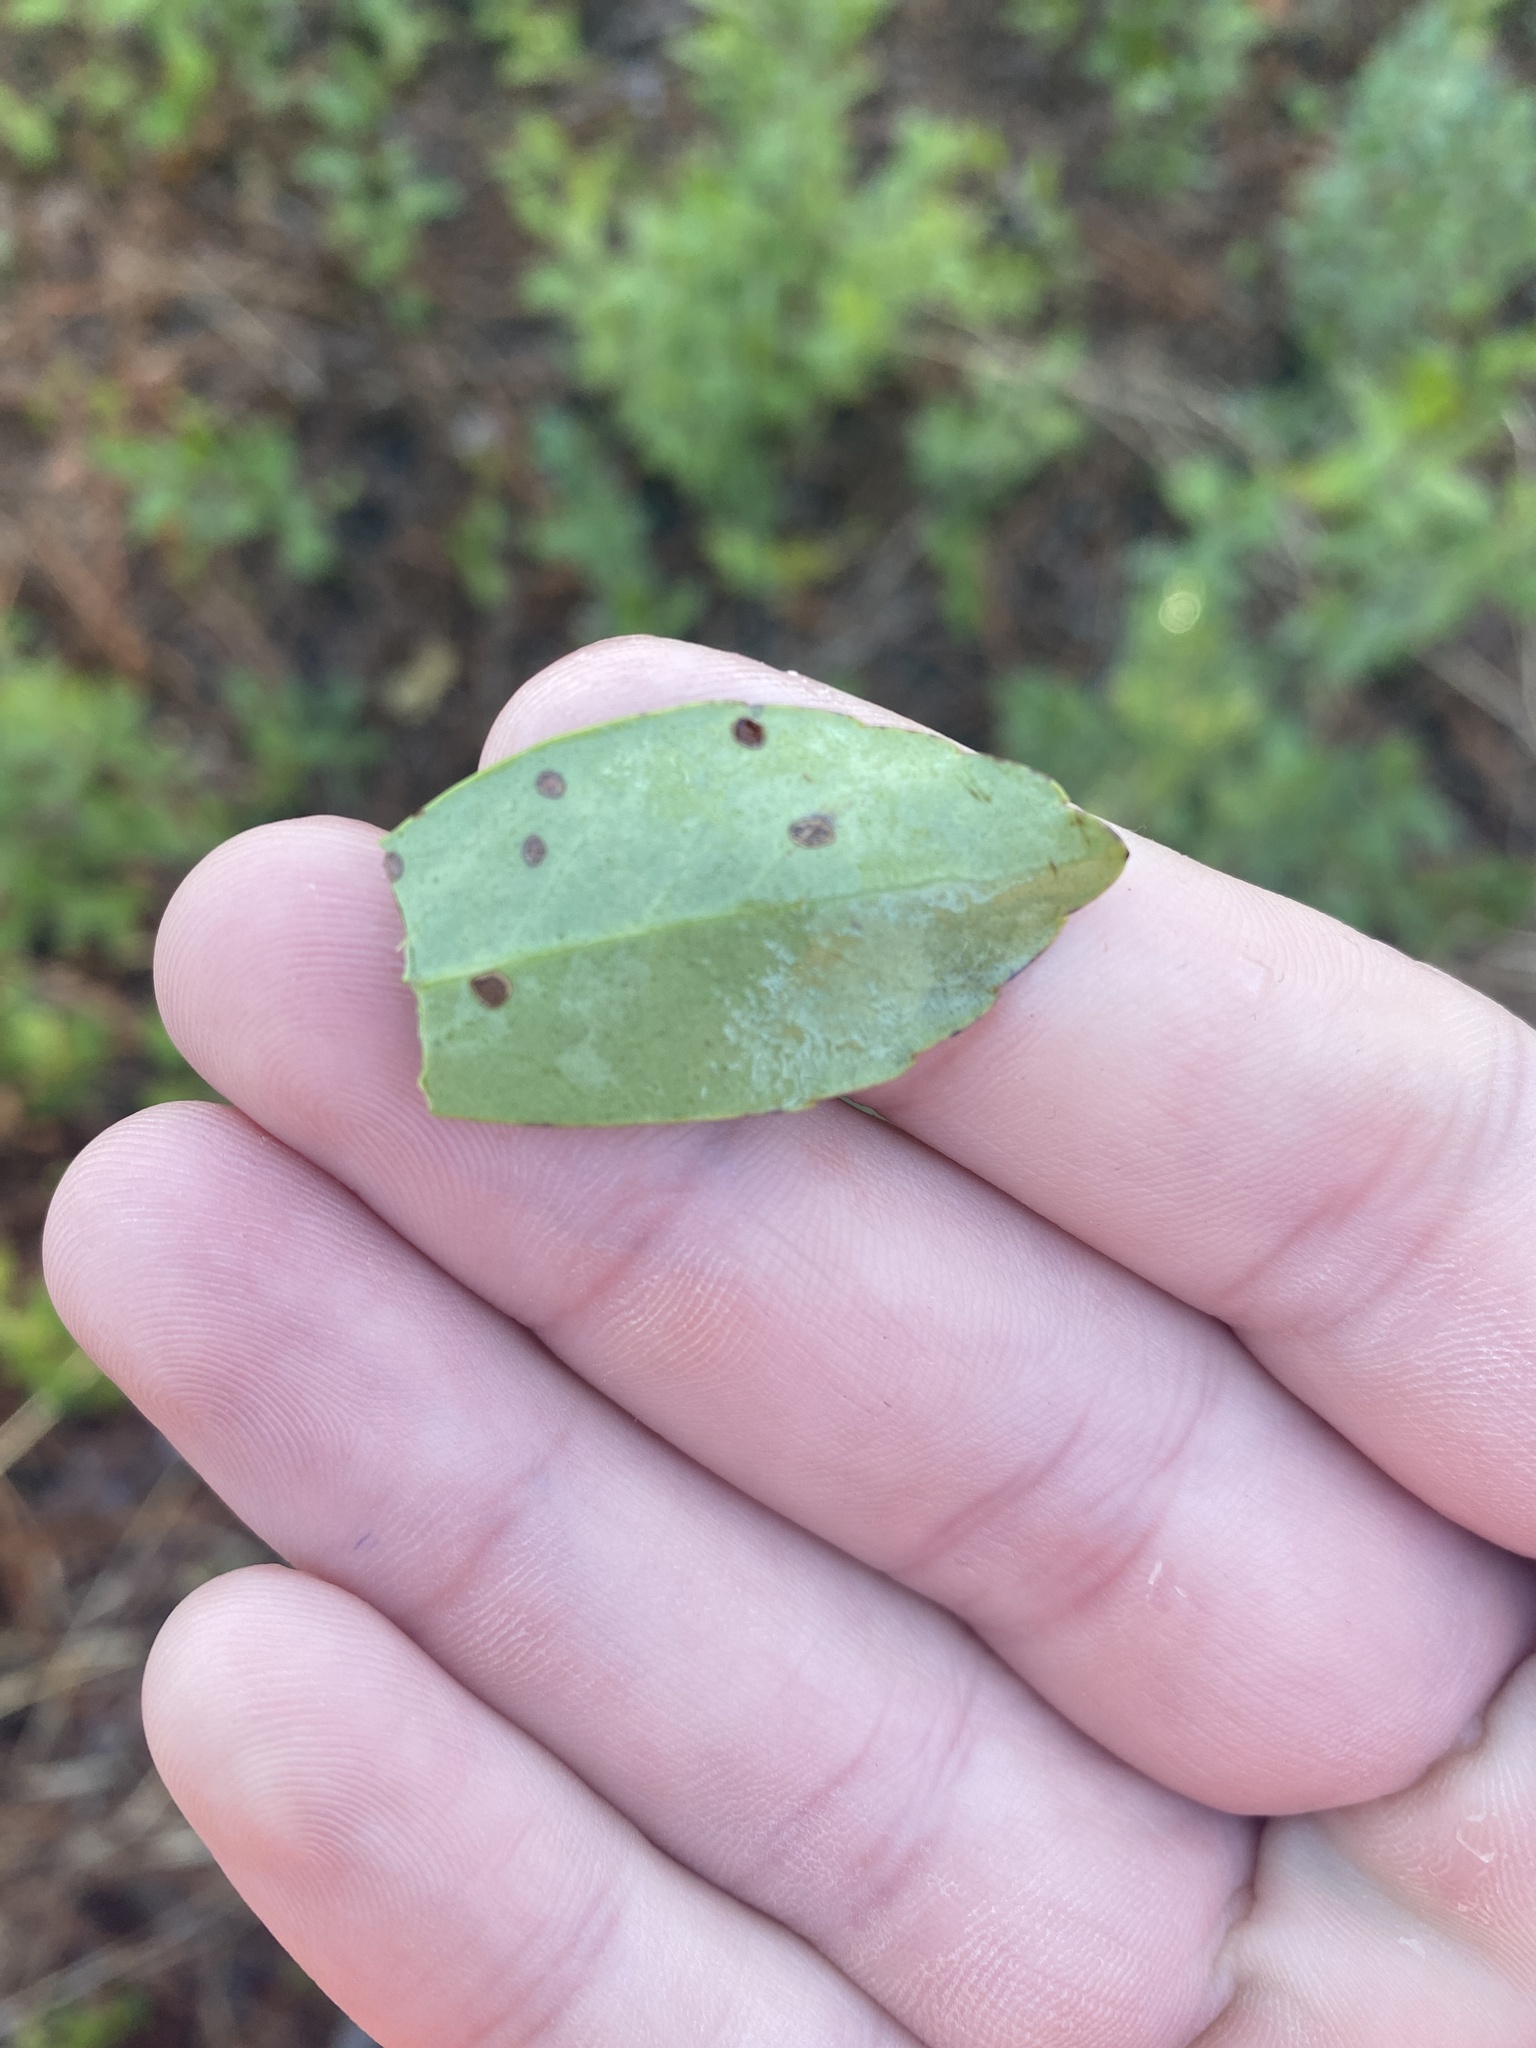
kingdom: Plantae
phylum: Tracheophyta
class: Magnoliopsida
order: Aquifoliales
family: Aquifoliaceae
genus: Ilex
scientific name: Ilex glabra
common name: Bitter gallberry
